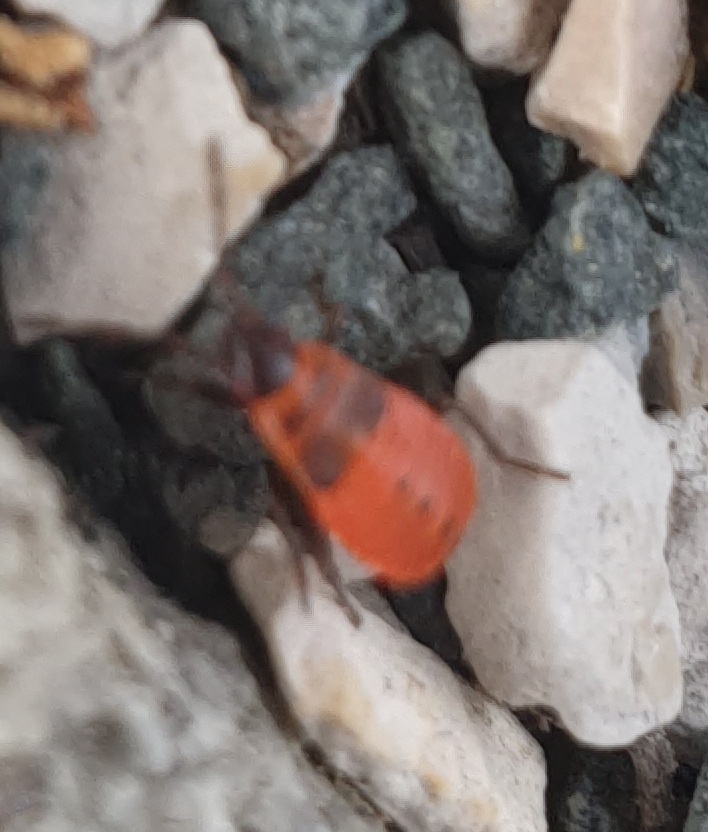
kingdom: Animalia
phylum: Arthropoda
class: Insecta
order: Hemiptera
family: Pyrrhocoridae
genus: Pyrrhocoris
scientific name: Pyrrhocoris apterus
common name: Firebug
